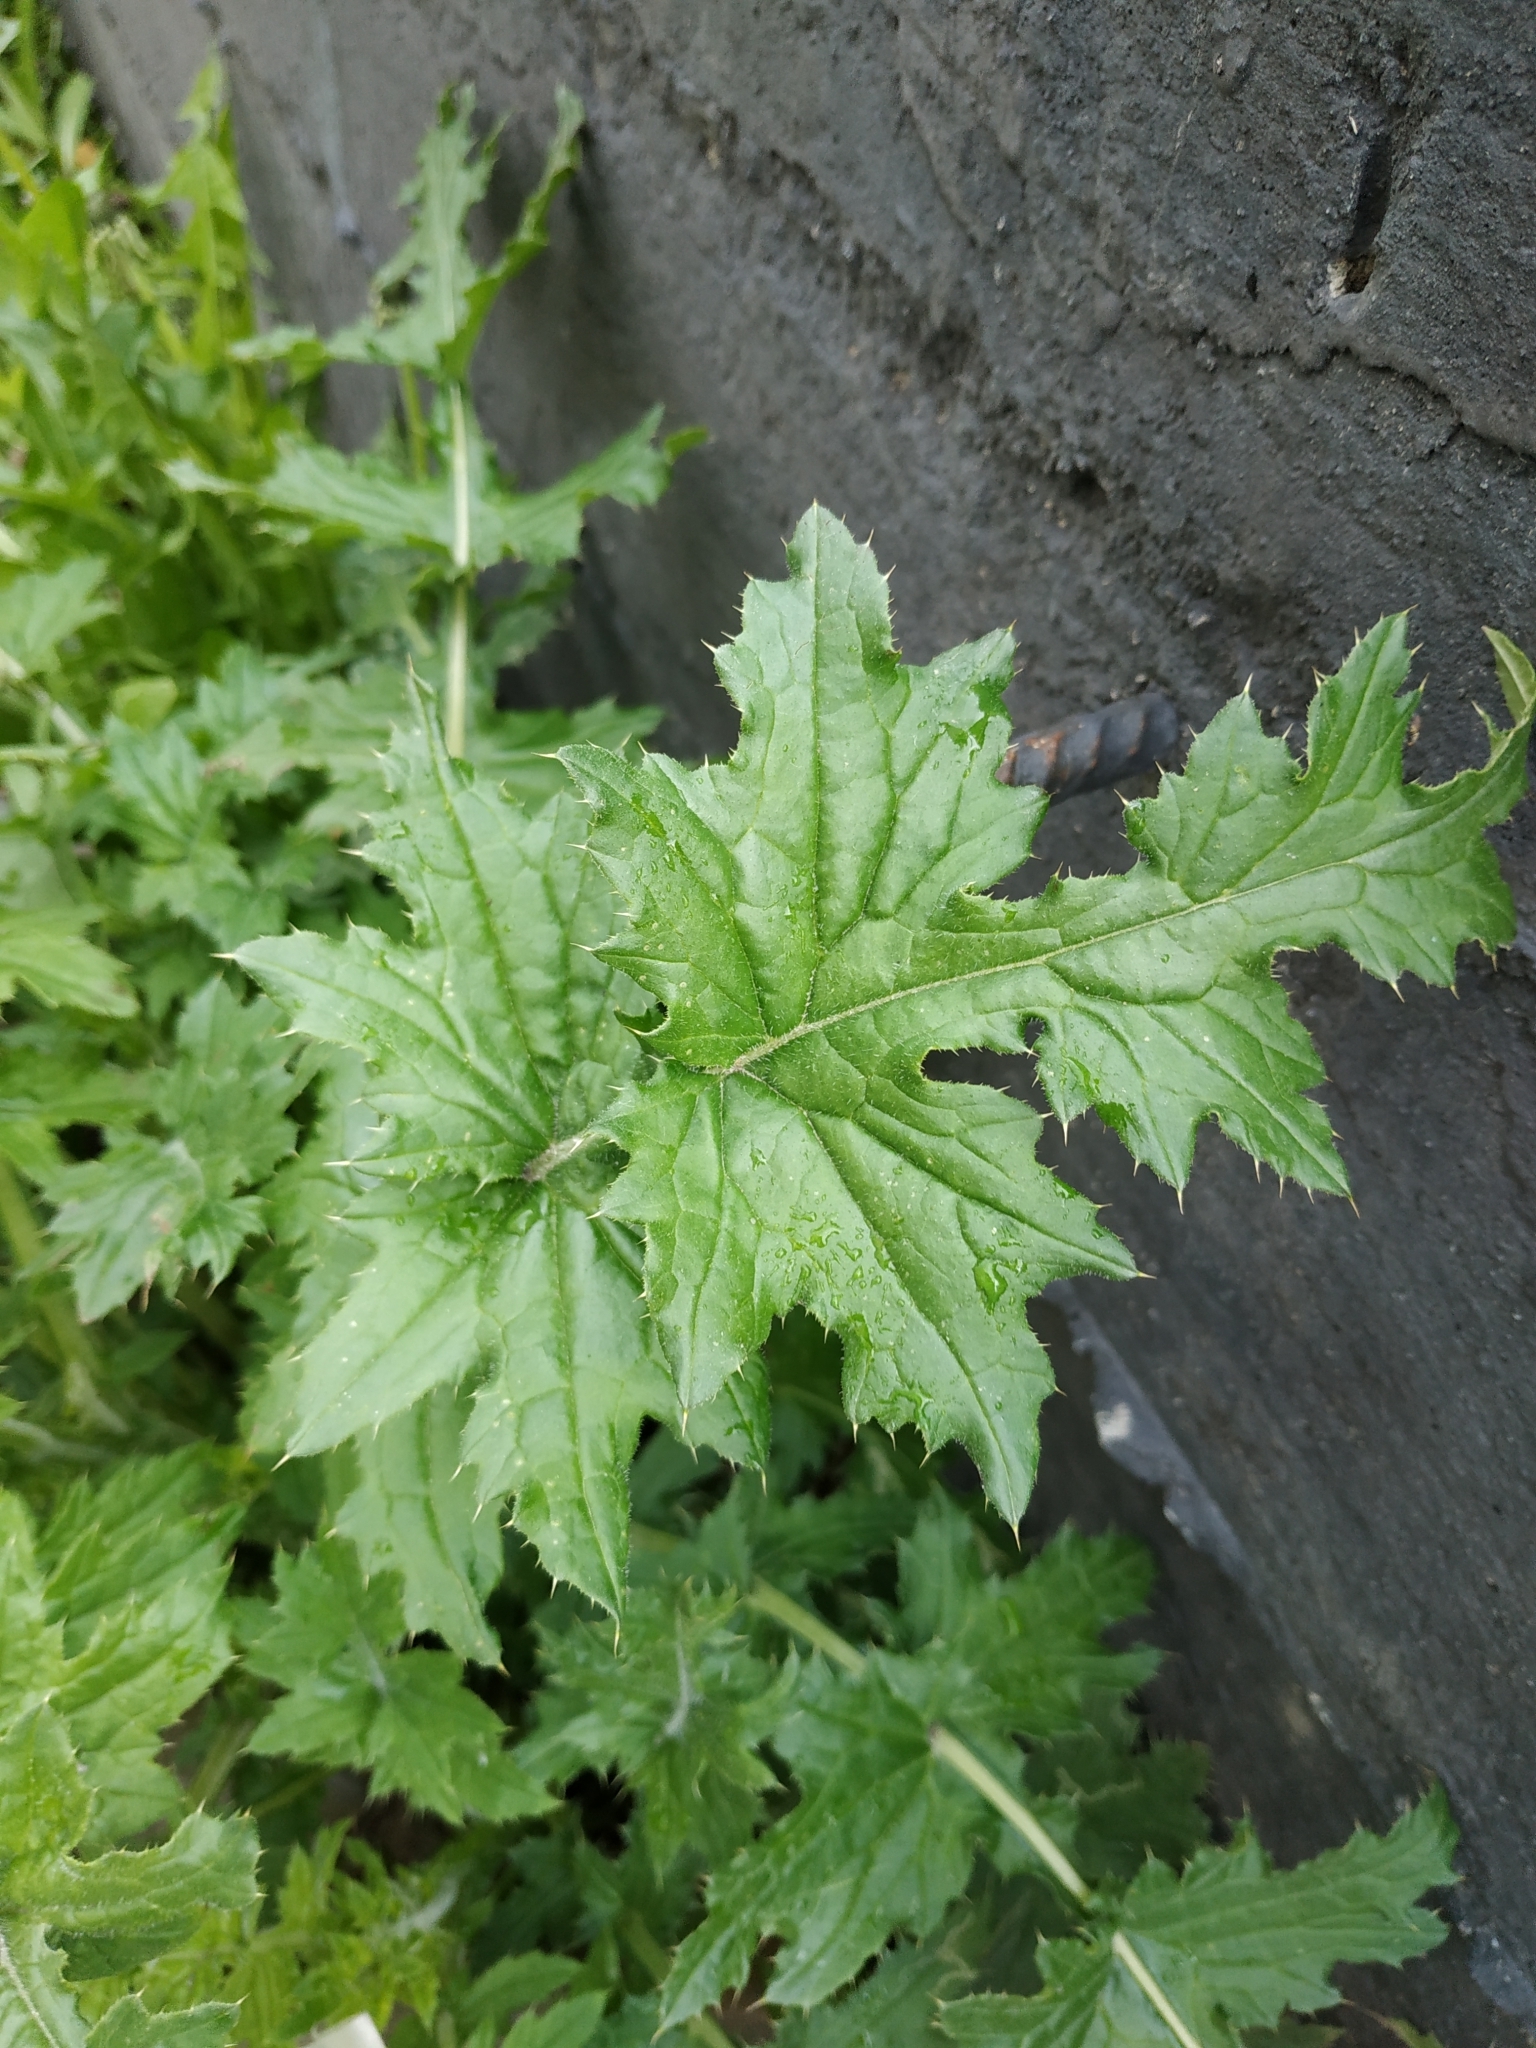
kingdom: Plantae
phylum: Tracheophyta
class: Magnoliopsida
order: Asterales
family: Asteraceae
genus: Carduus
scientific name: Carduus crispus
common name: Welted thistle
